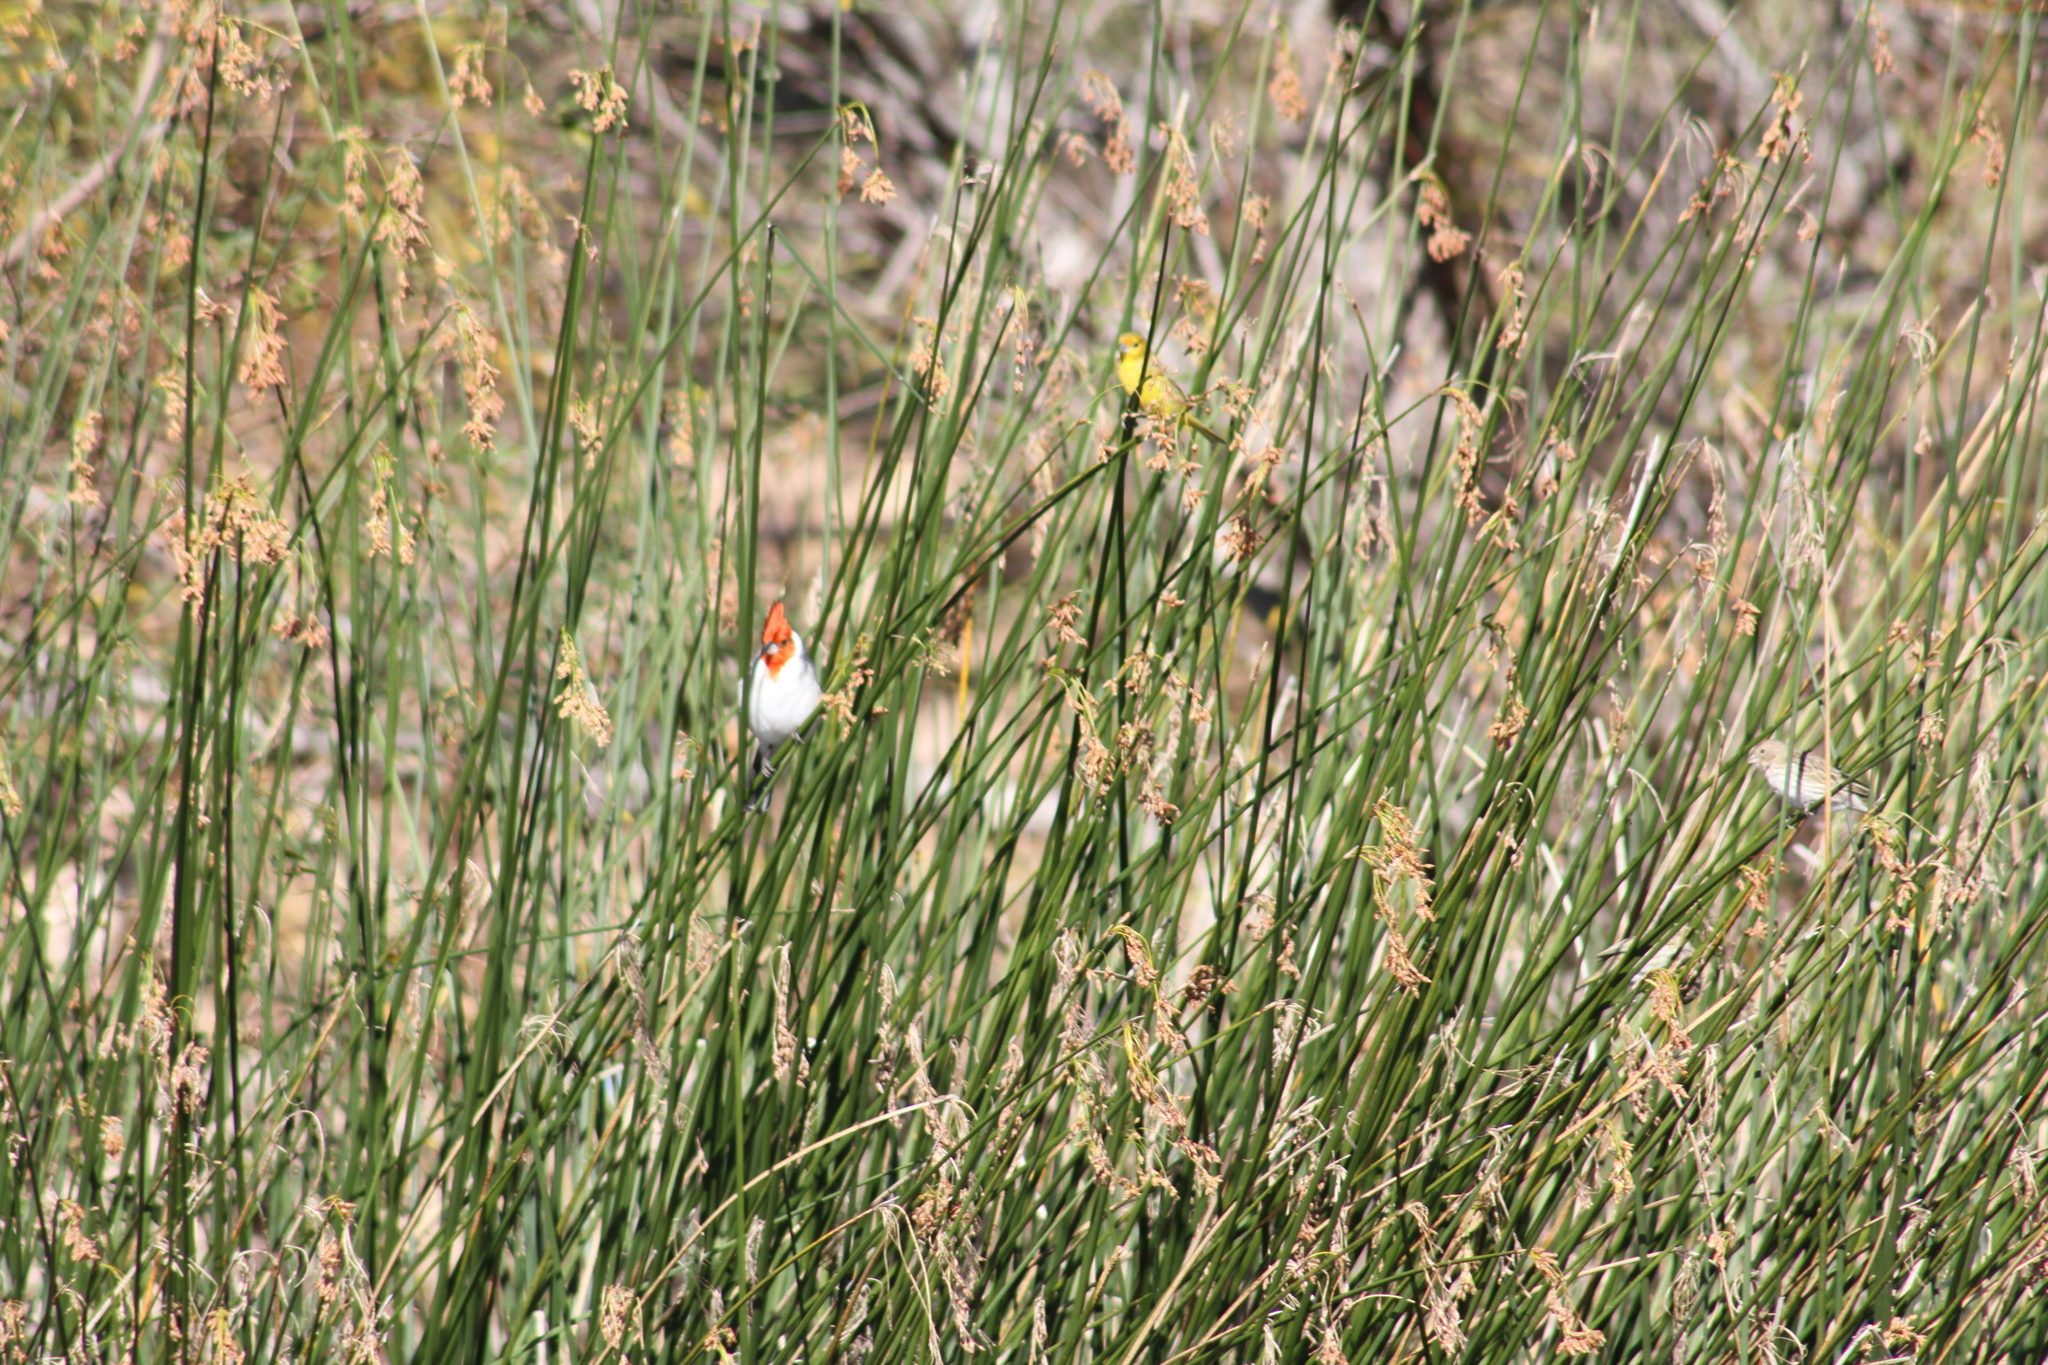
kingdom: Animalia
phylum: Chordata
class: Aves
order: Passeriformes
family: Thraupidae
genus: Paroaria
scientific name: Paroaria coronata
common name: Red-crested cardinal
